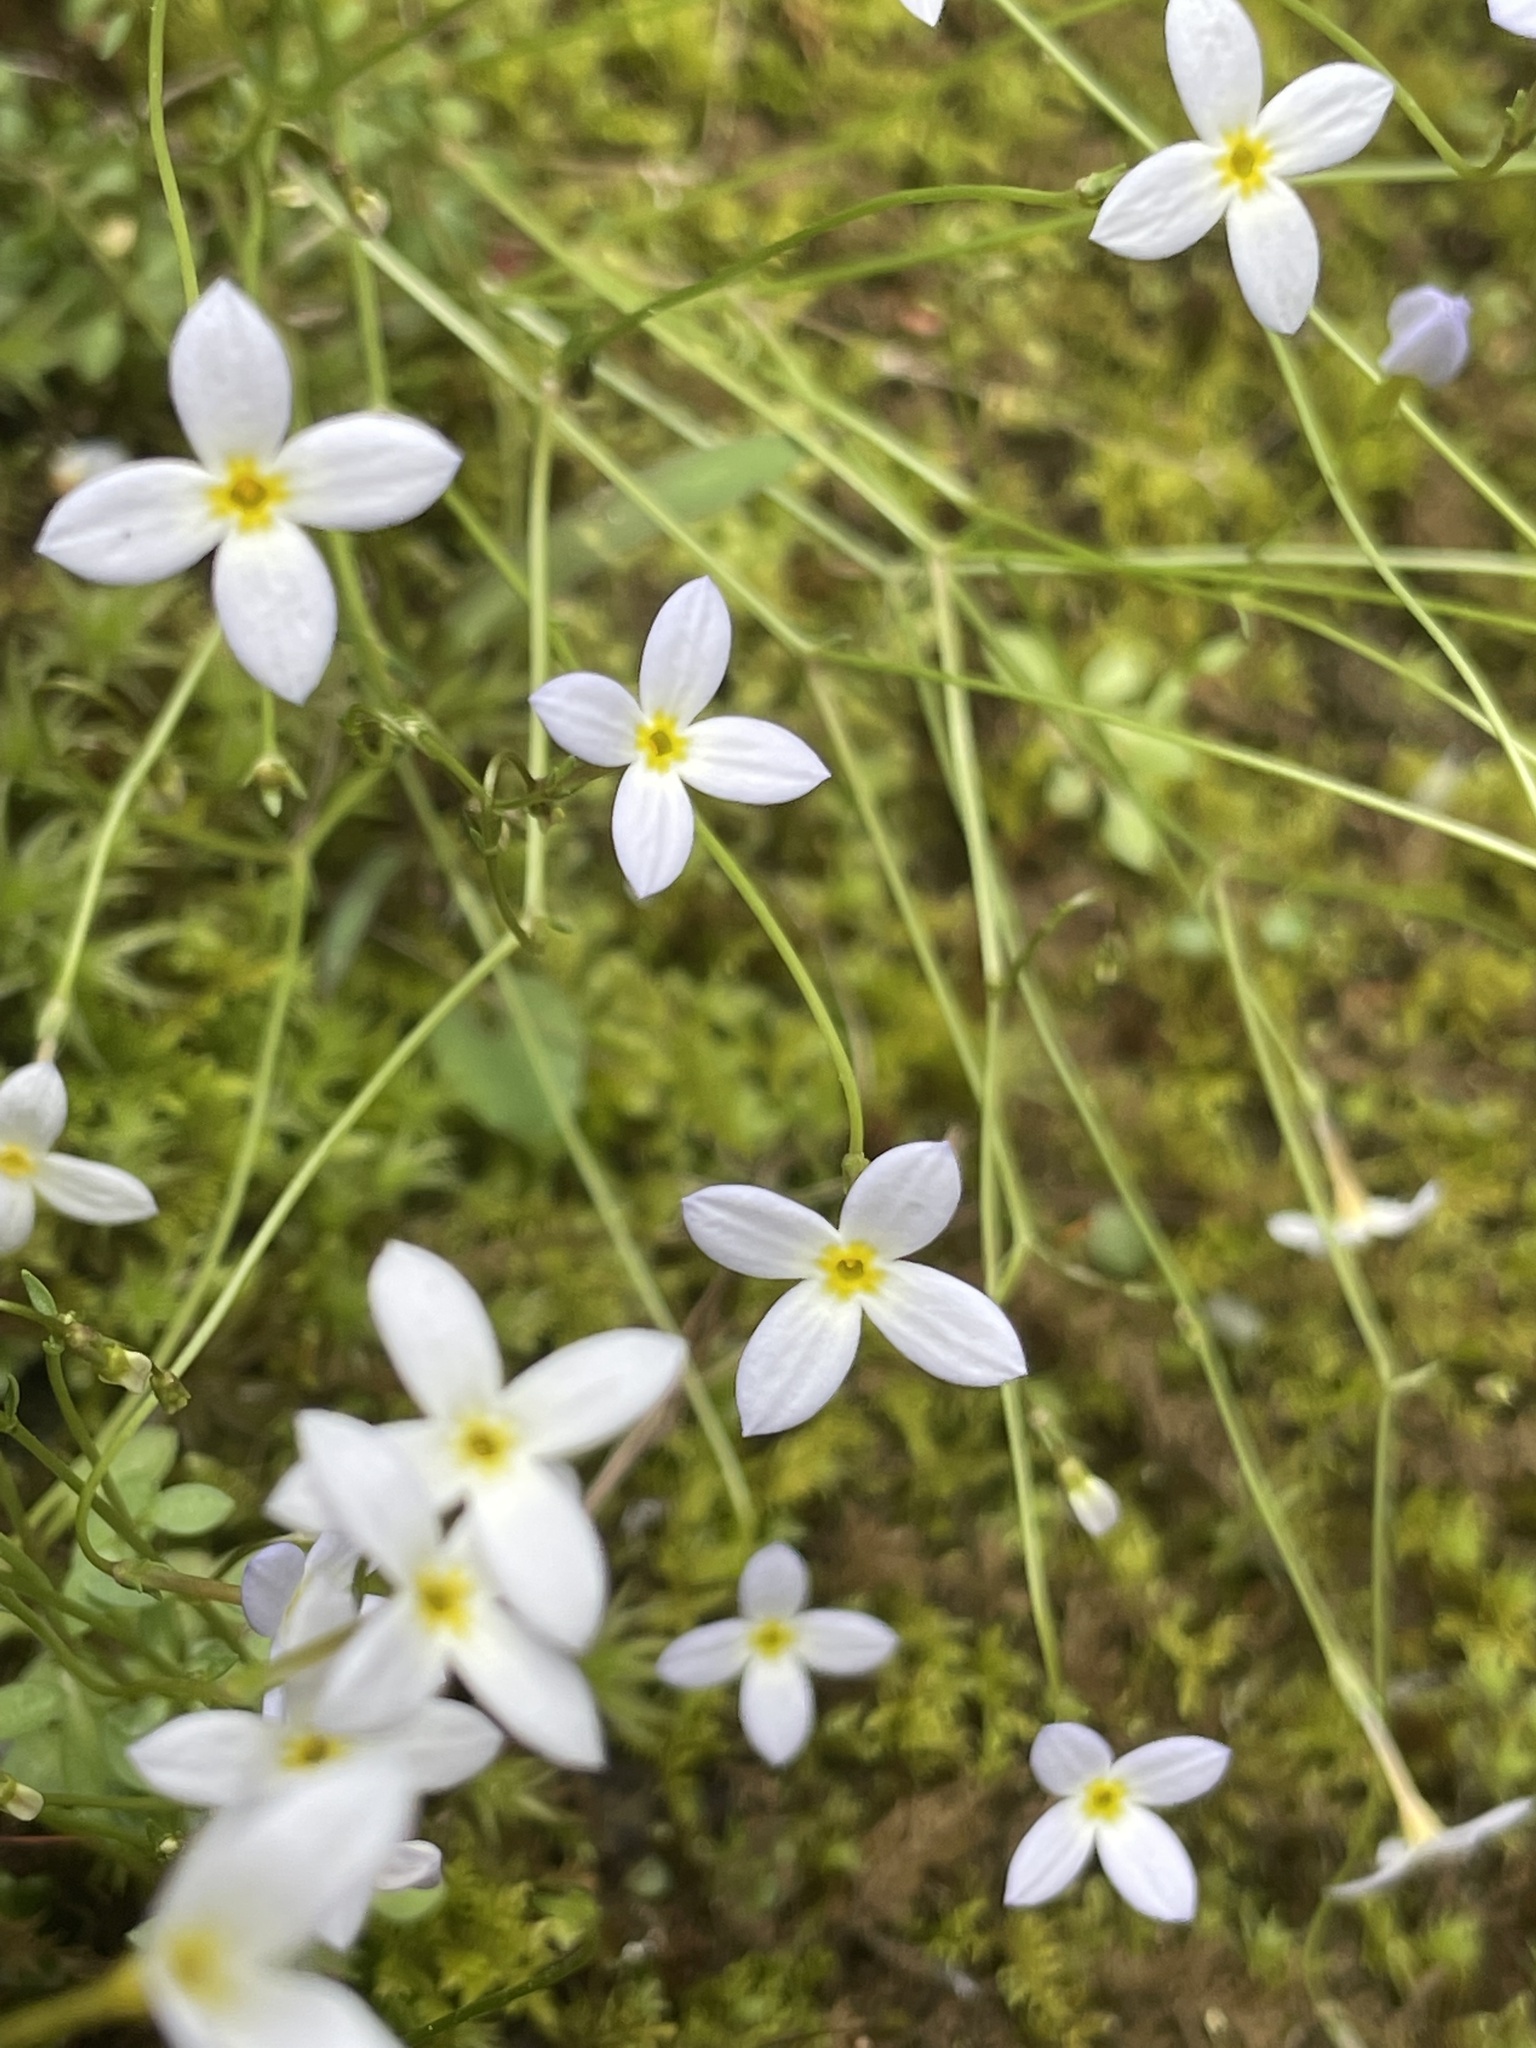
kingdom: Plantae
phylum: Tracheophyta
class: Magnoliopsida
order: Gentianales
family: Rubiaceae
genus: Houstonia
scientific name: Houstonia caerulea
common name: Bluets
